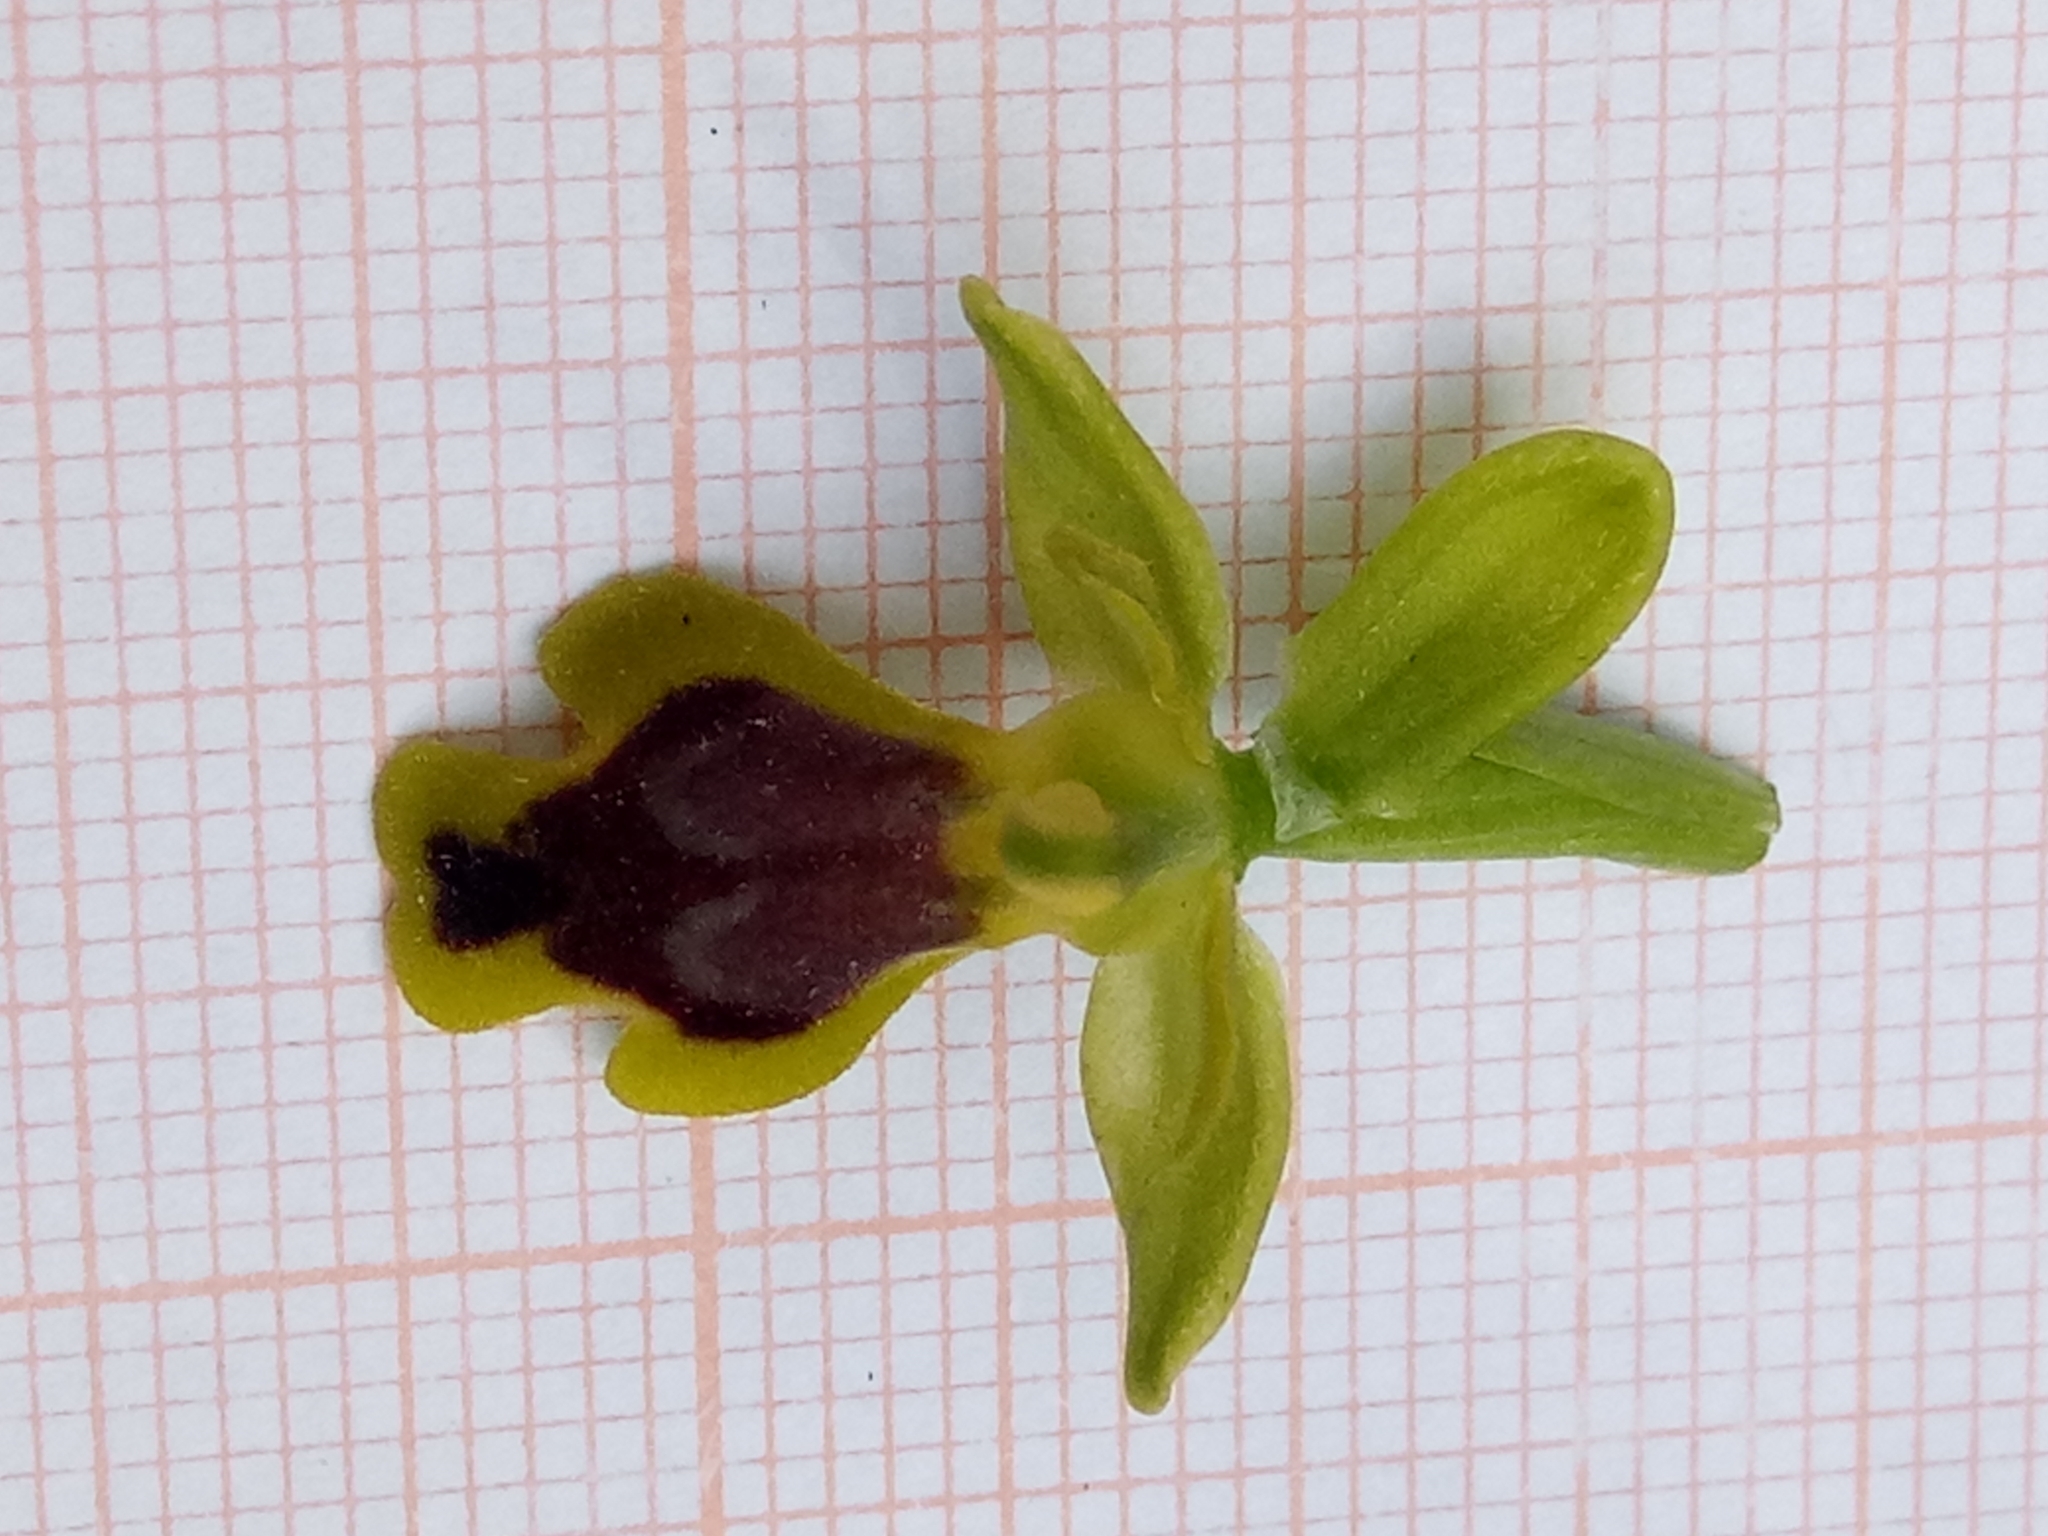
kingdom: Plantae
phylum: Tracheophyta
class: Liliopsida
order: Asparagales
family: Orchidaceae
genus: Ophrys
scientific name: Ophrys battandieri
